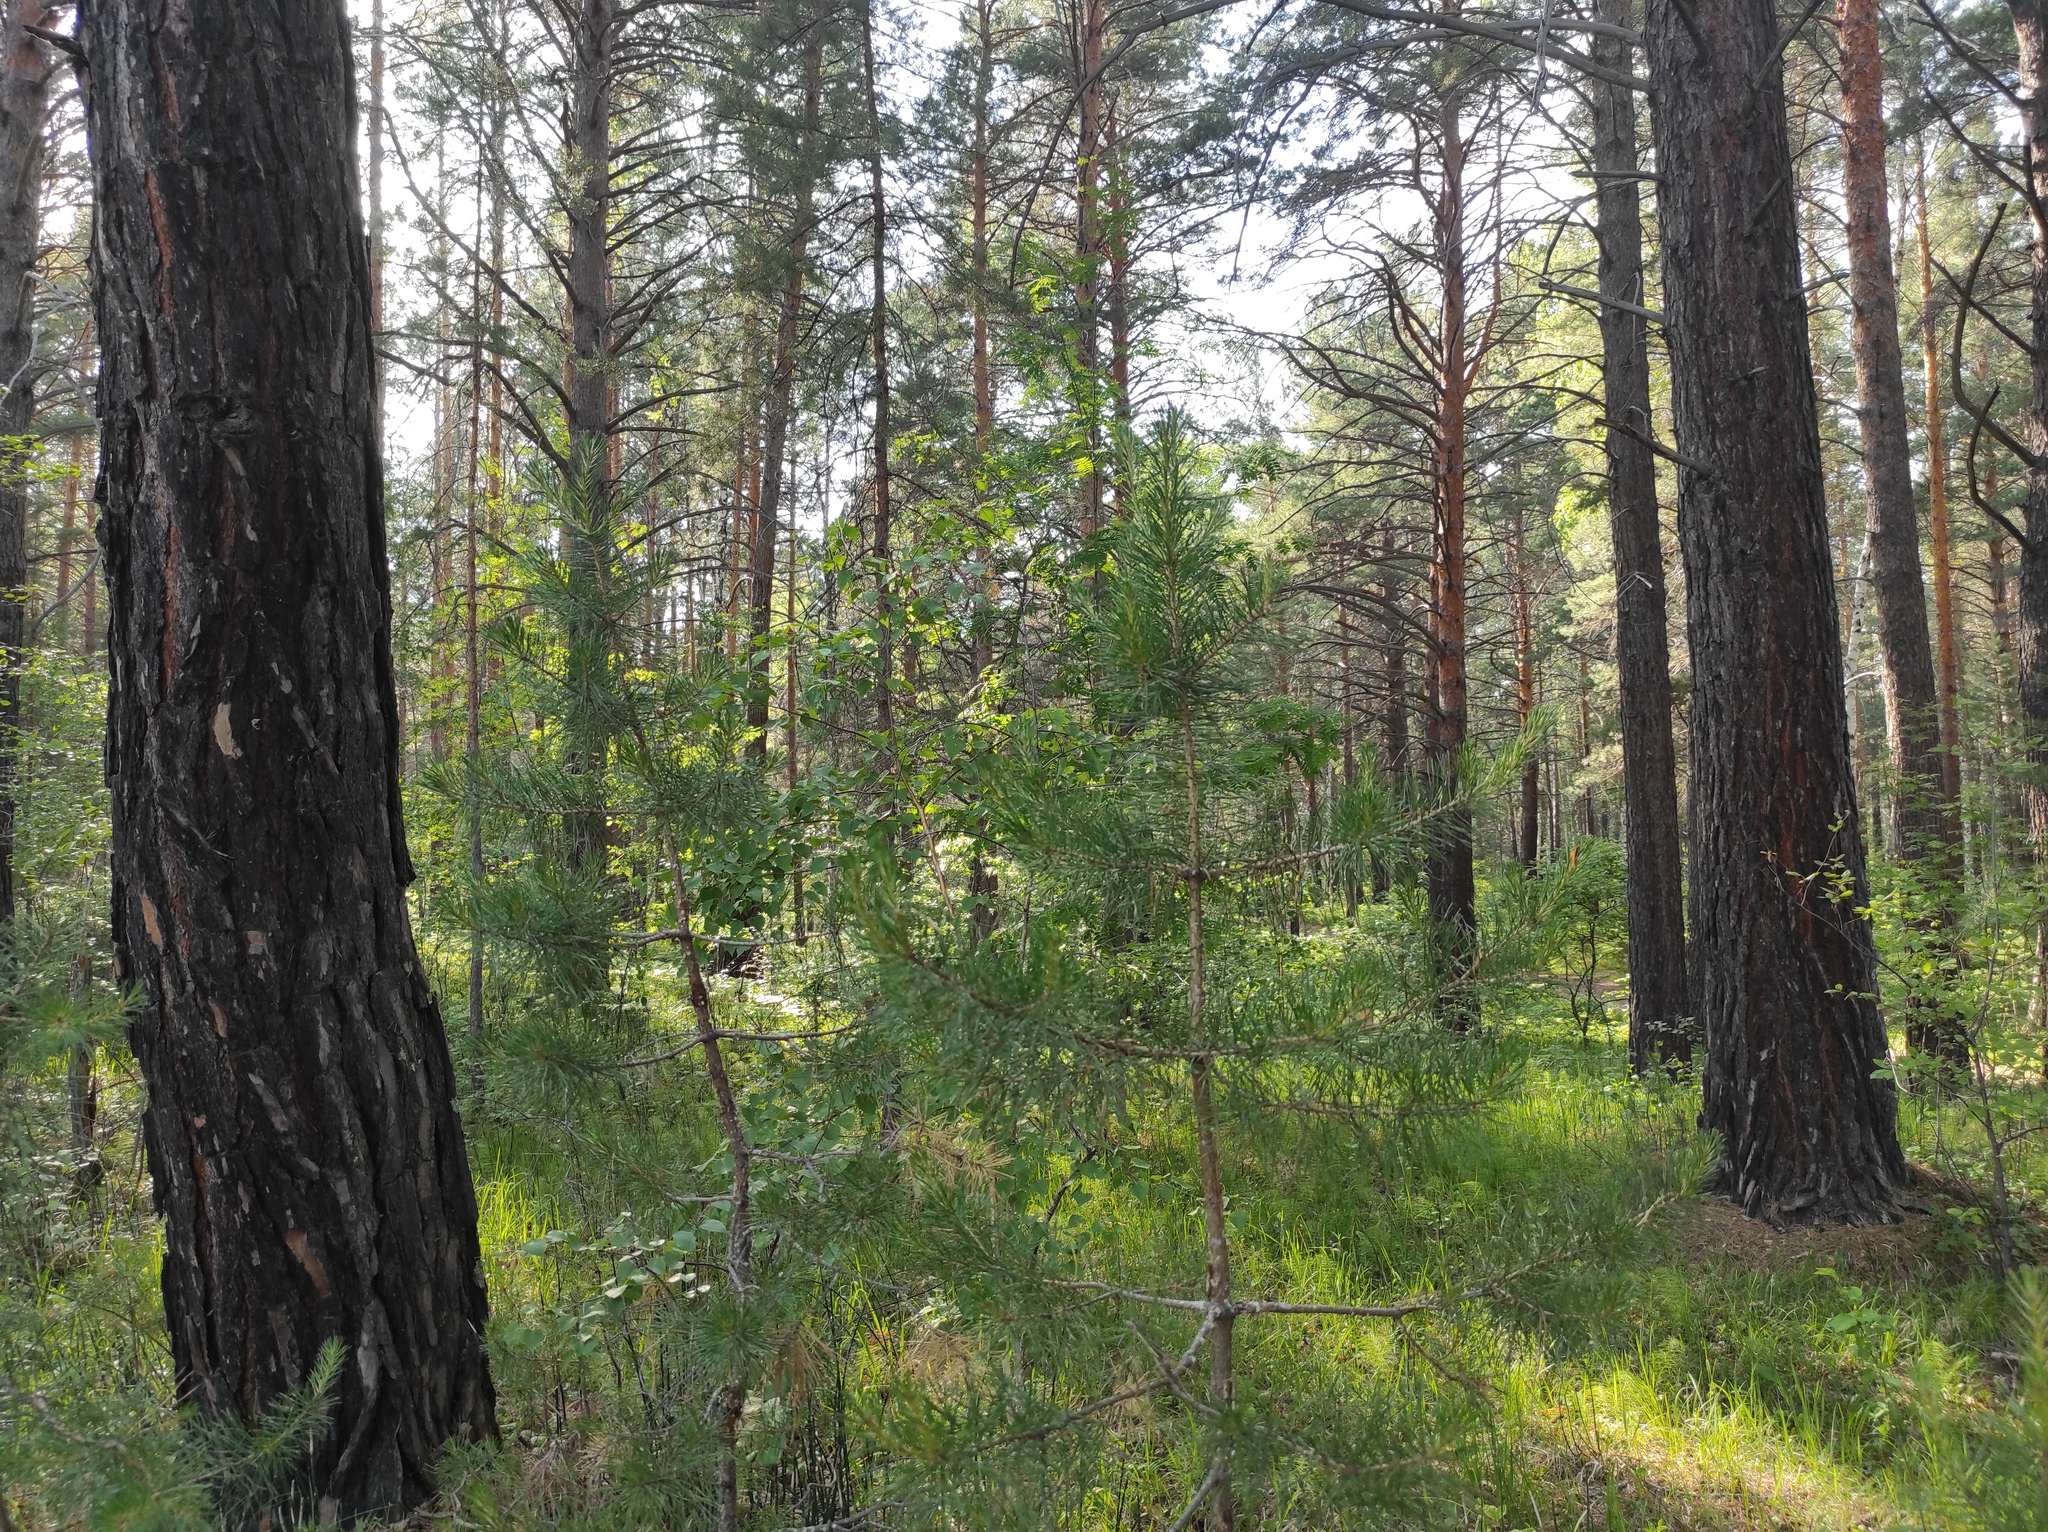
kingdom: Plantae
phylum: Tracheophyta
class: Pinopsida
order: Pinales
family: Pinaceae
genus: Pinus
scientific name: Pinus sylvestris
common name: Scots pine
